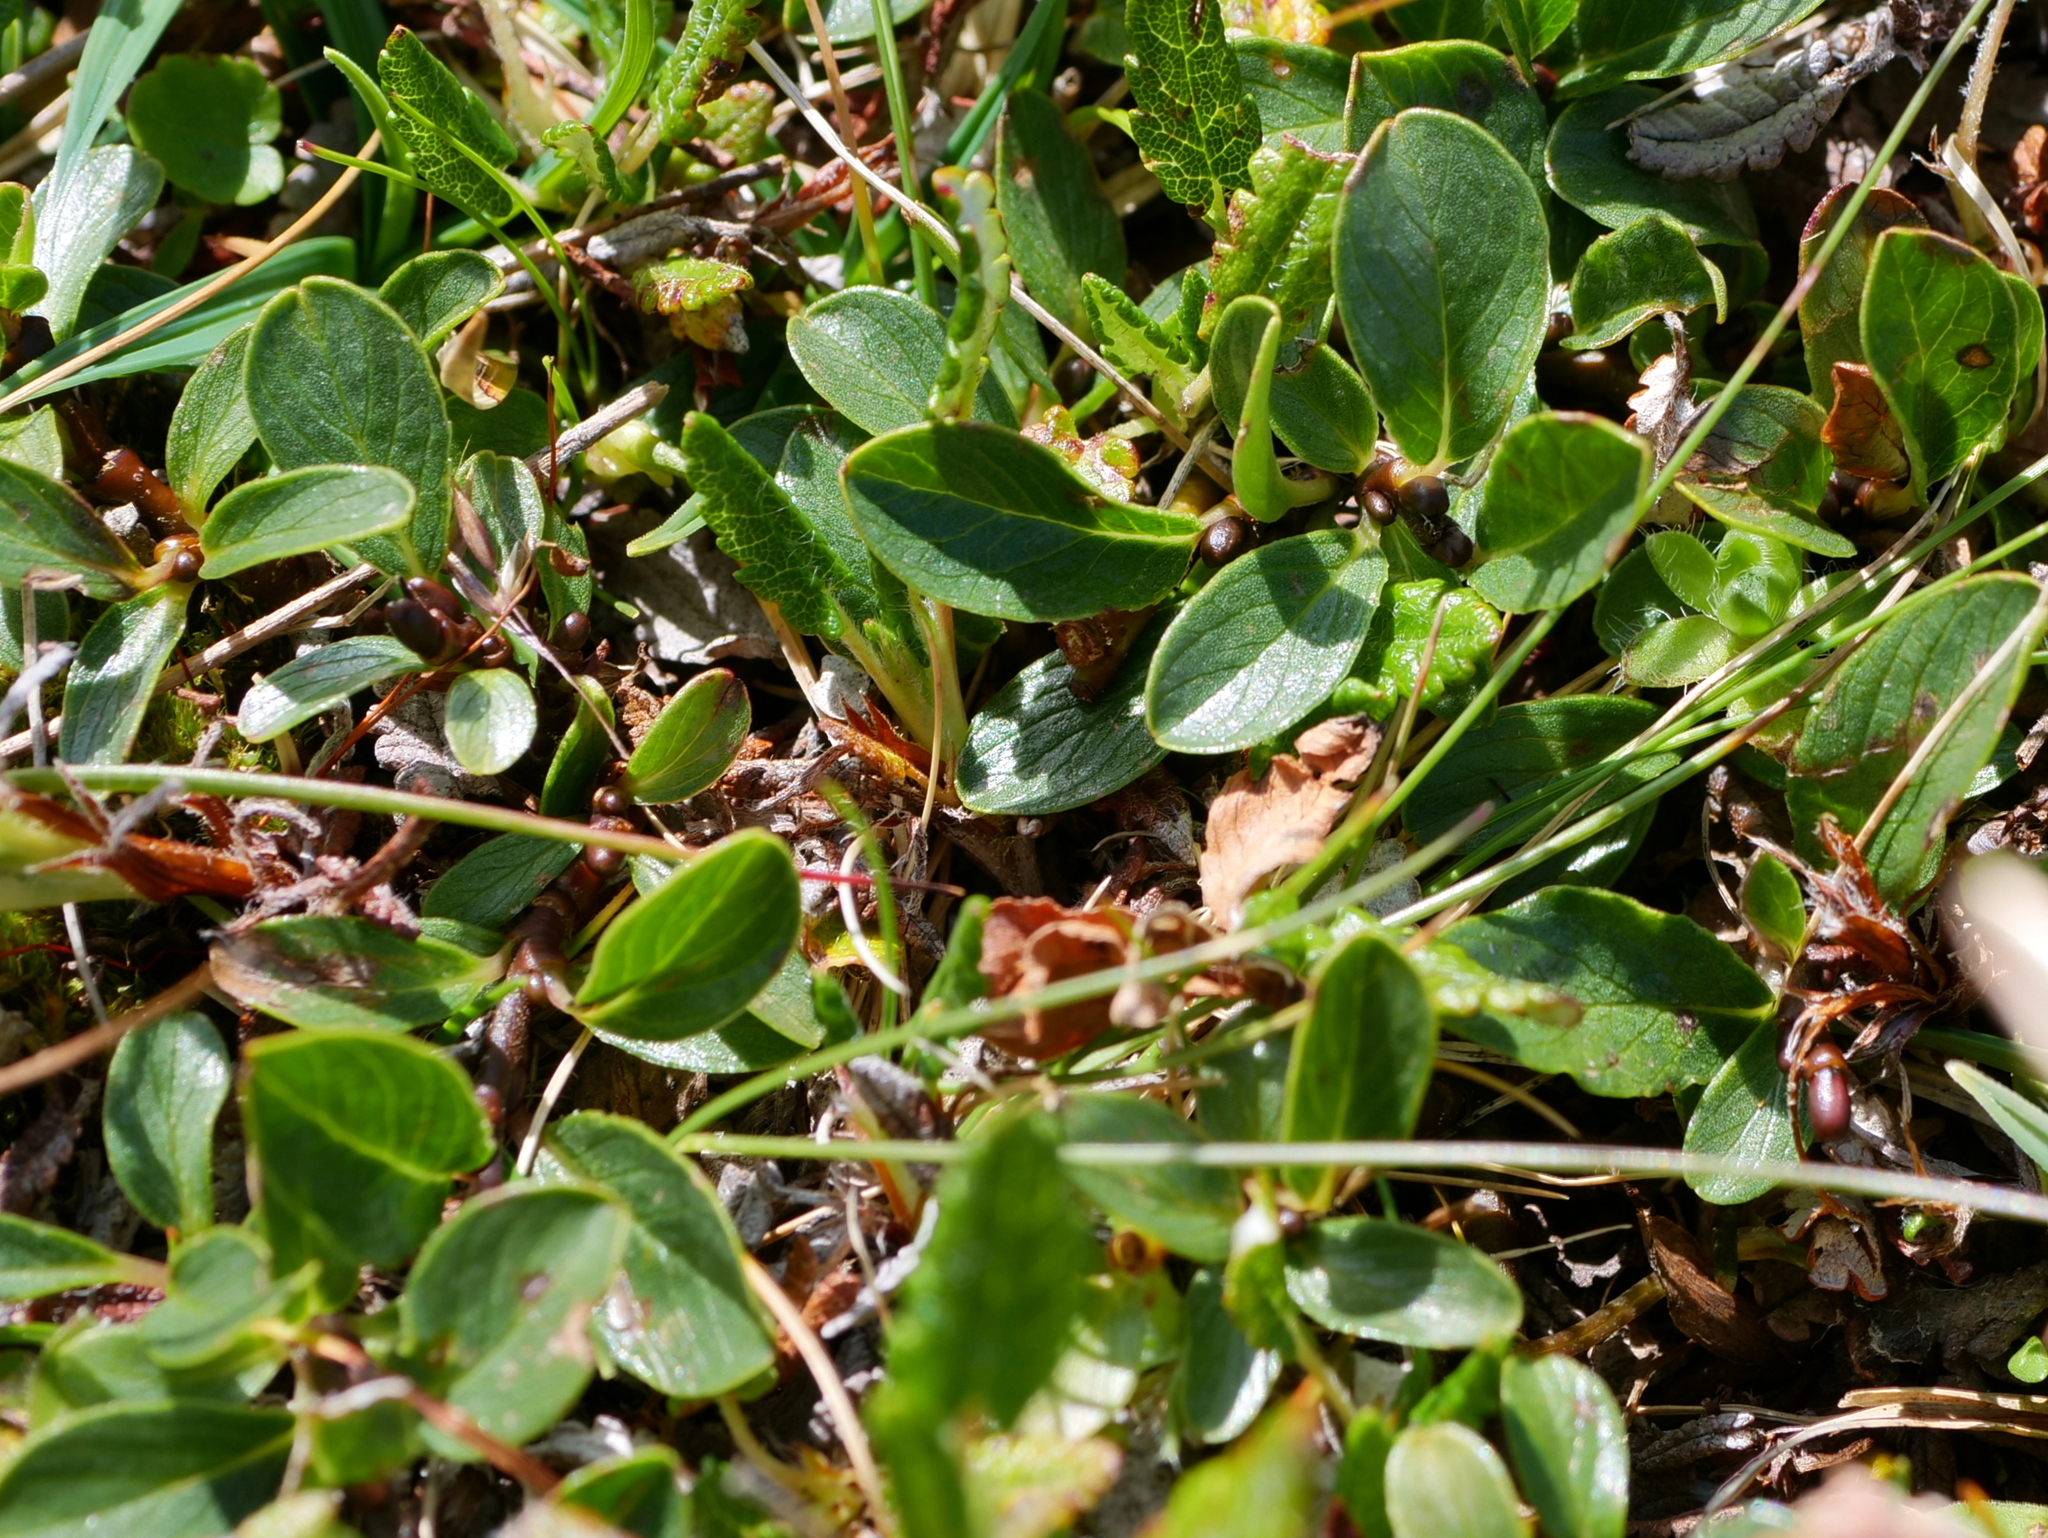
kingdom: Plantae
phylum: Tracheophyta
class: Magnoliopsida
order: Malpighiales
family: Salicaceae
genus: Salix
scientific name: Salix retusa
